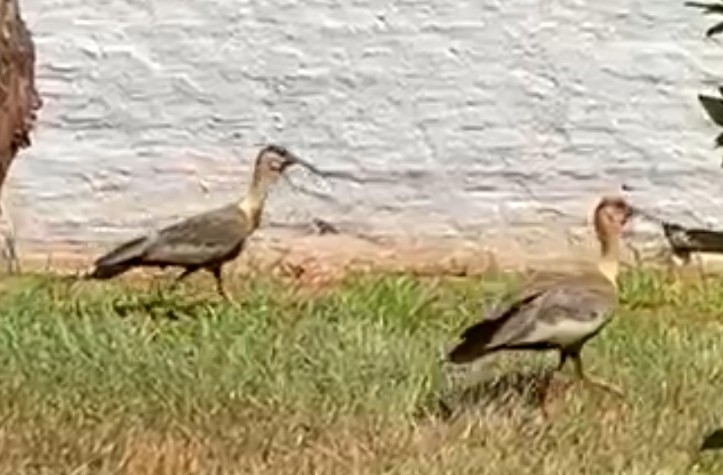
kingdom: Animalia
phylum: Chordata
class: Aves
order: Pelecaniformes
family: Threskiornithidae
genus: Theristicus
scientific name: Theristicus caudatus
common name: Buff-necked ibis
